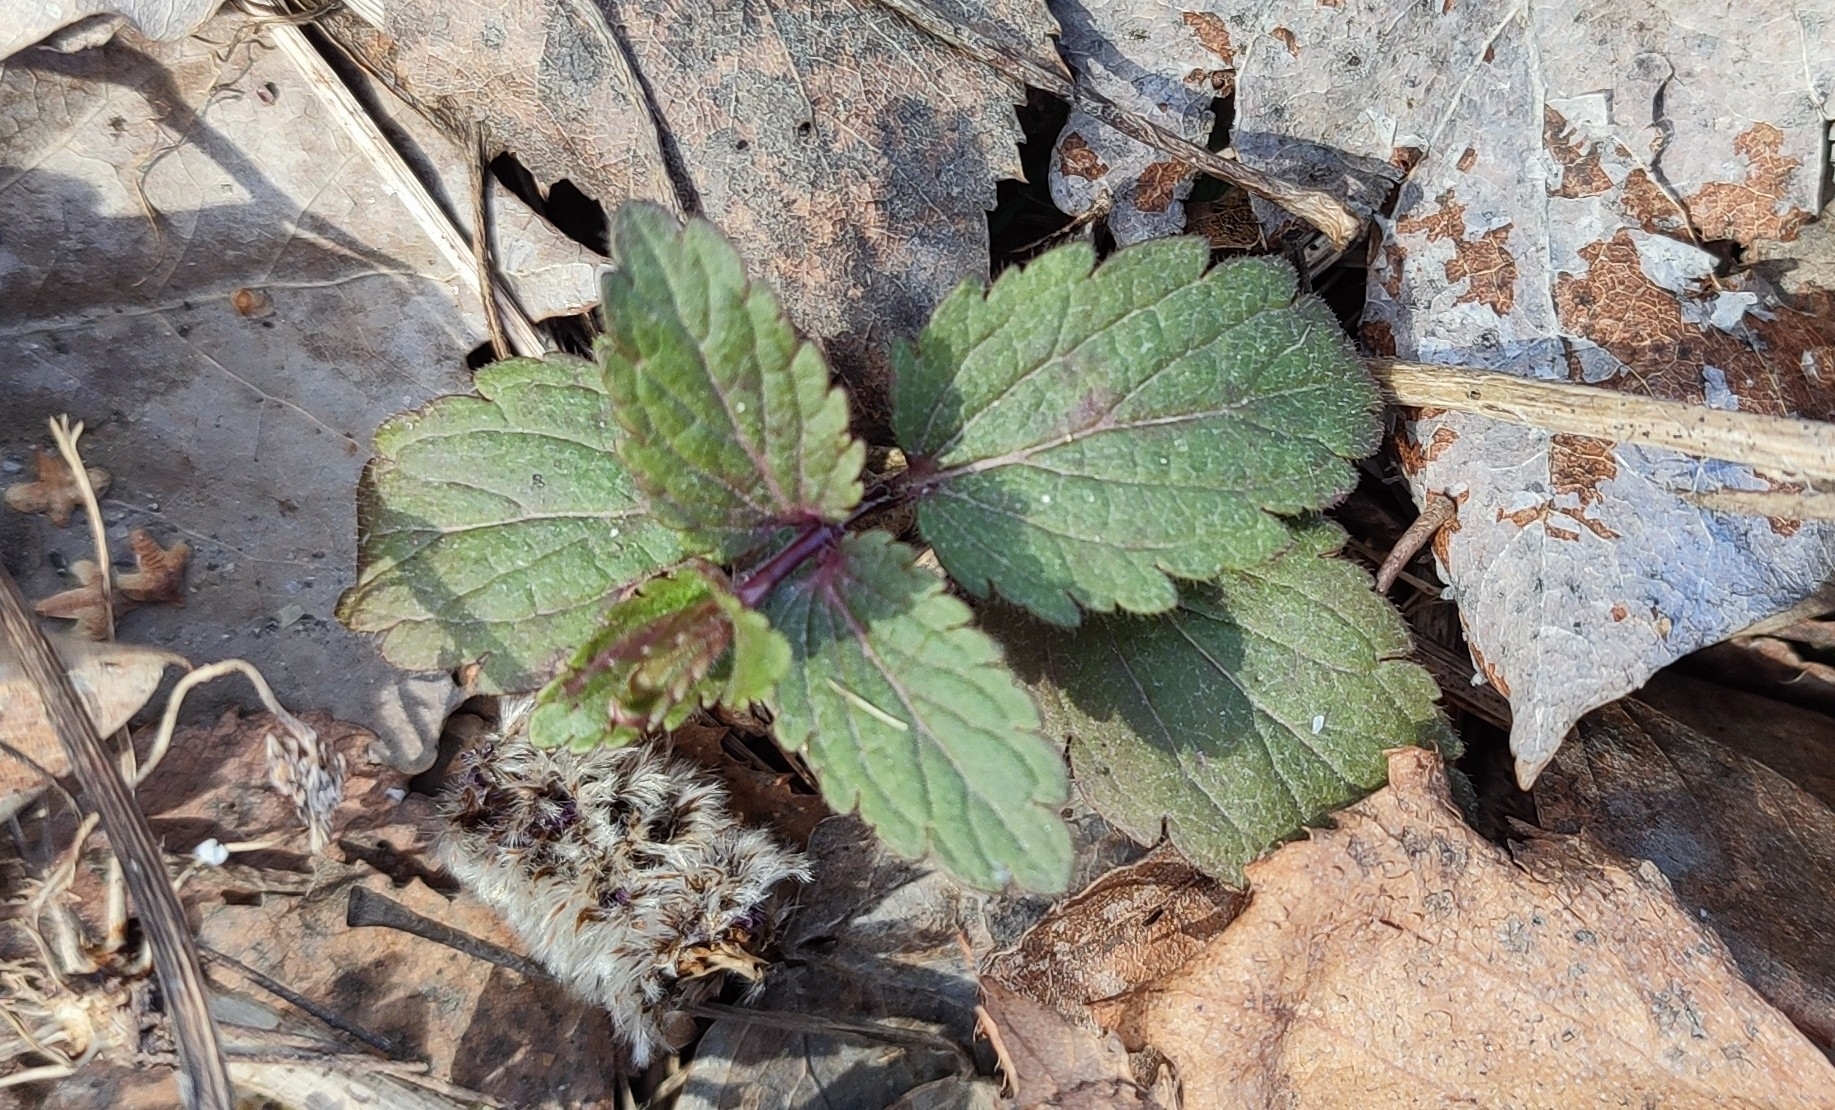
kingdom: Plantae
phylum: Tracheophyta
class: Magnoliopsida
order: Lamiales
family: Lamiaceae
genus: Dracocephalum
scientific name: Dracocephalum thymiflorum
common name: Thymeleaf dragonhead
